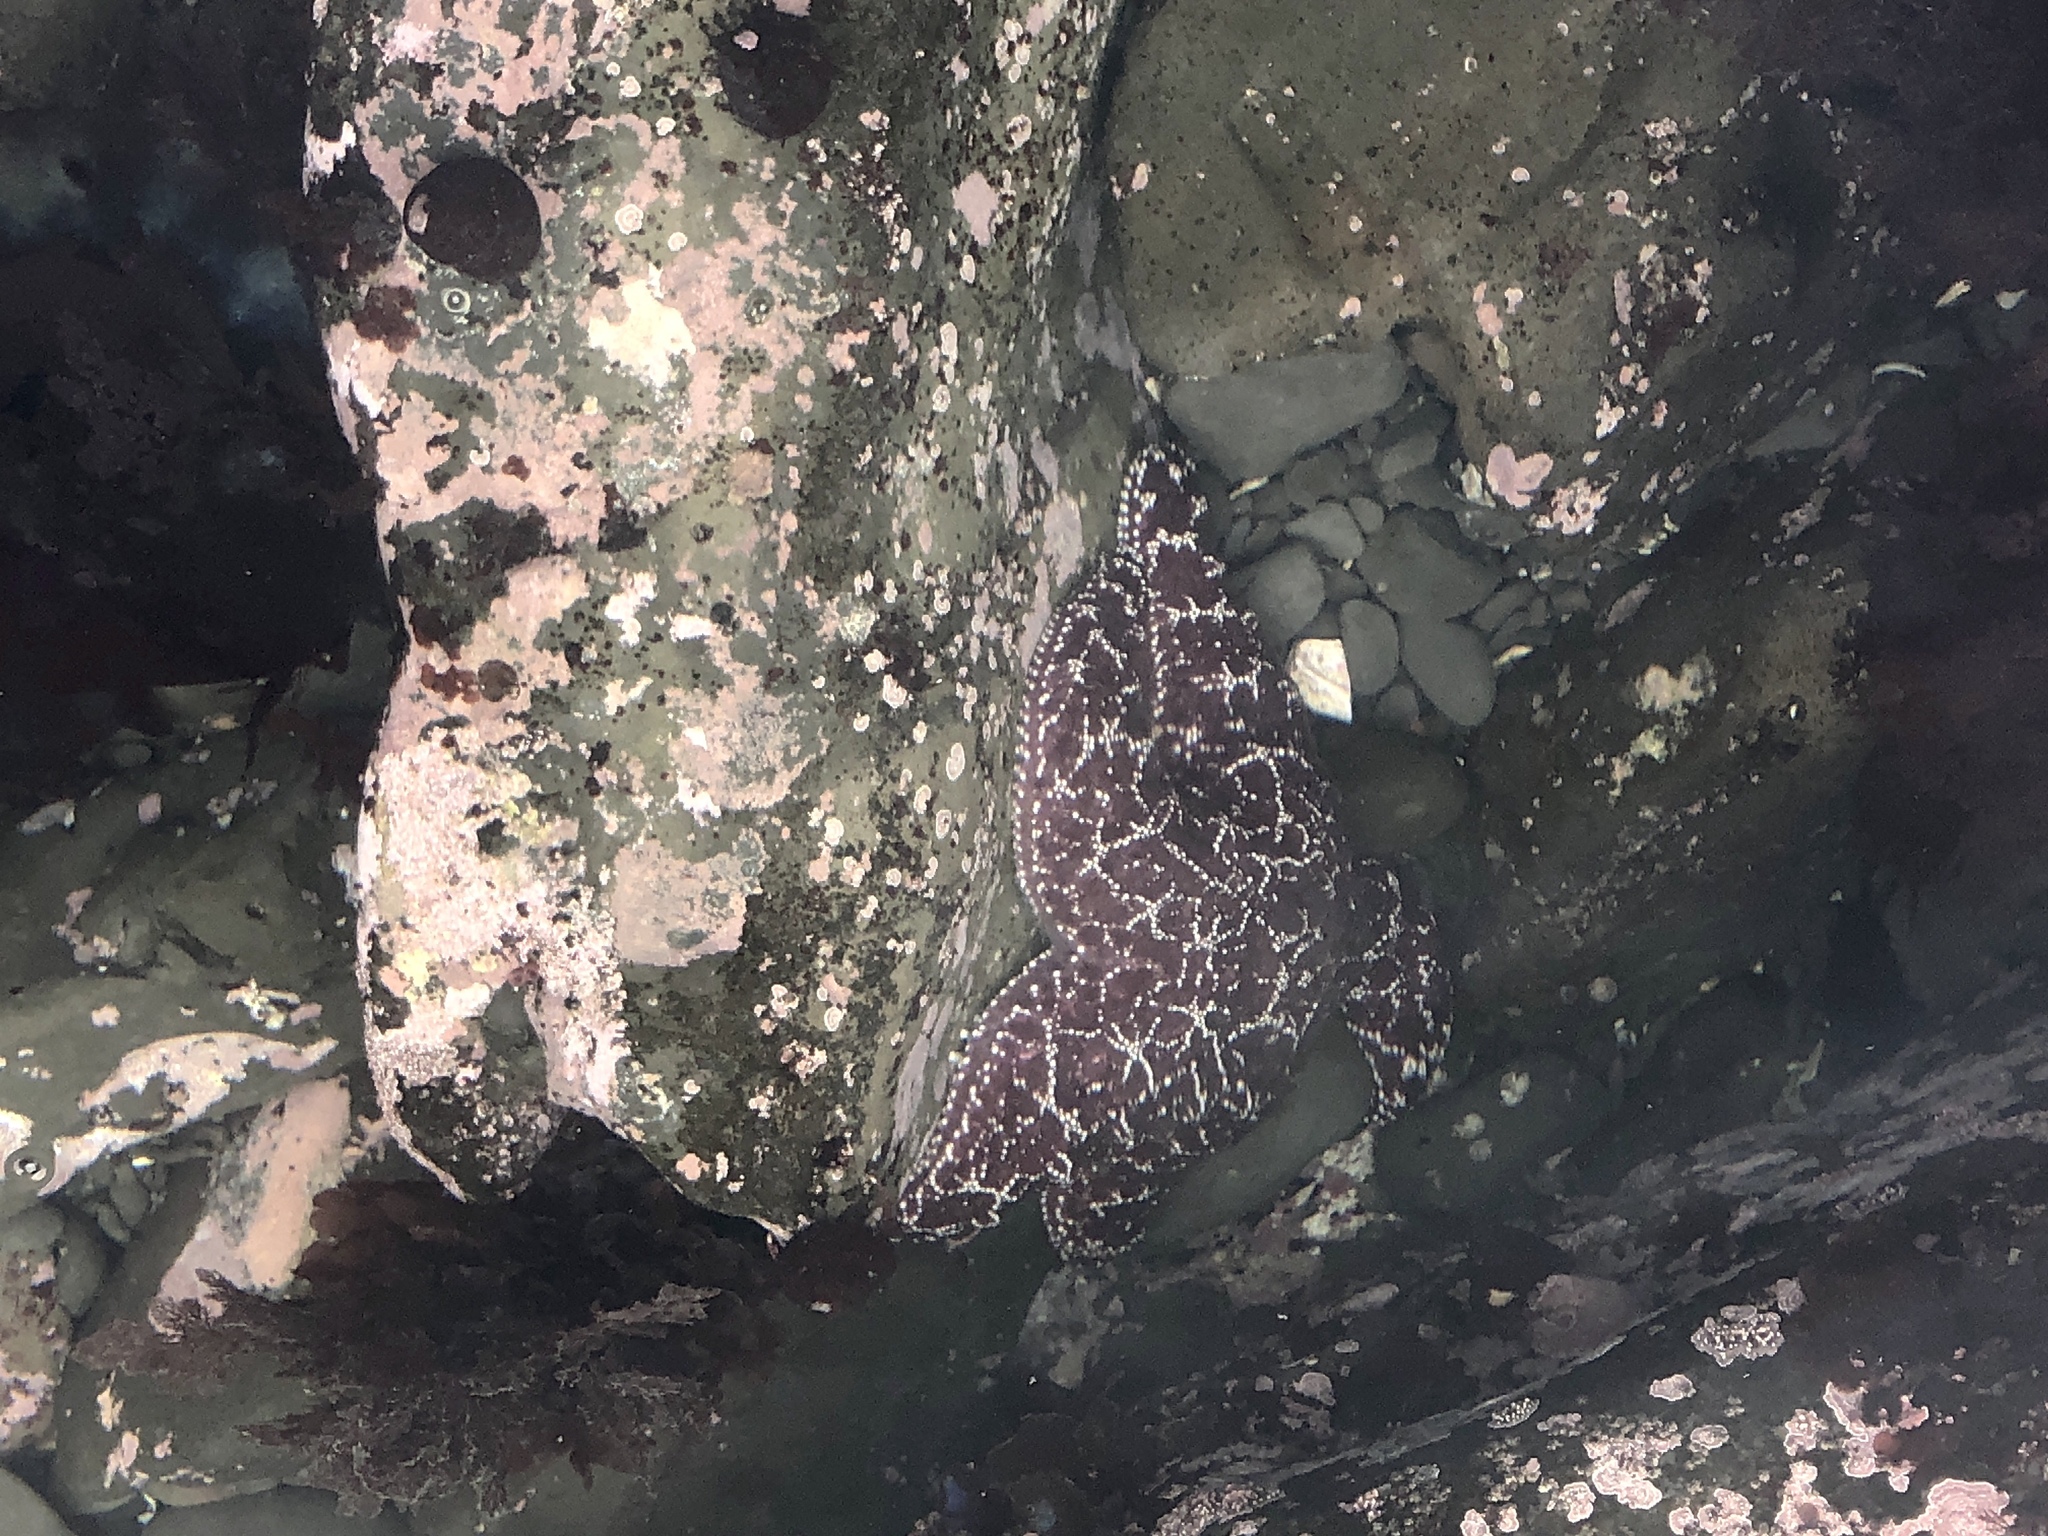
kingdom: Animalia
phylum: Echinodermata
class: Asteroidea
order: Forcipulatida
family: Asteriidae
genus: Pisaster
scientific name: Pisaster ochraceus
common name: Ochre stars
